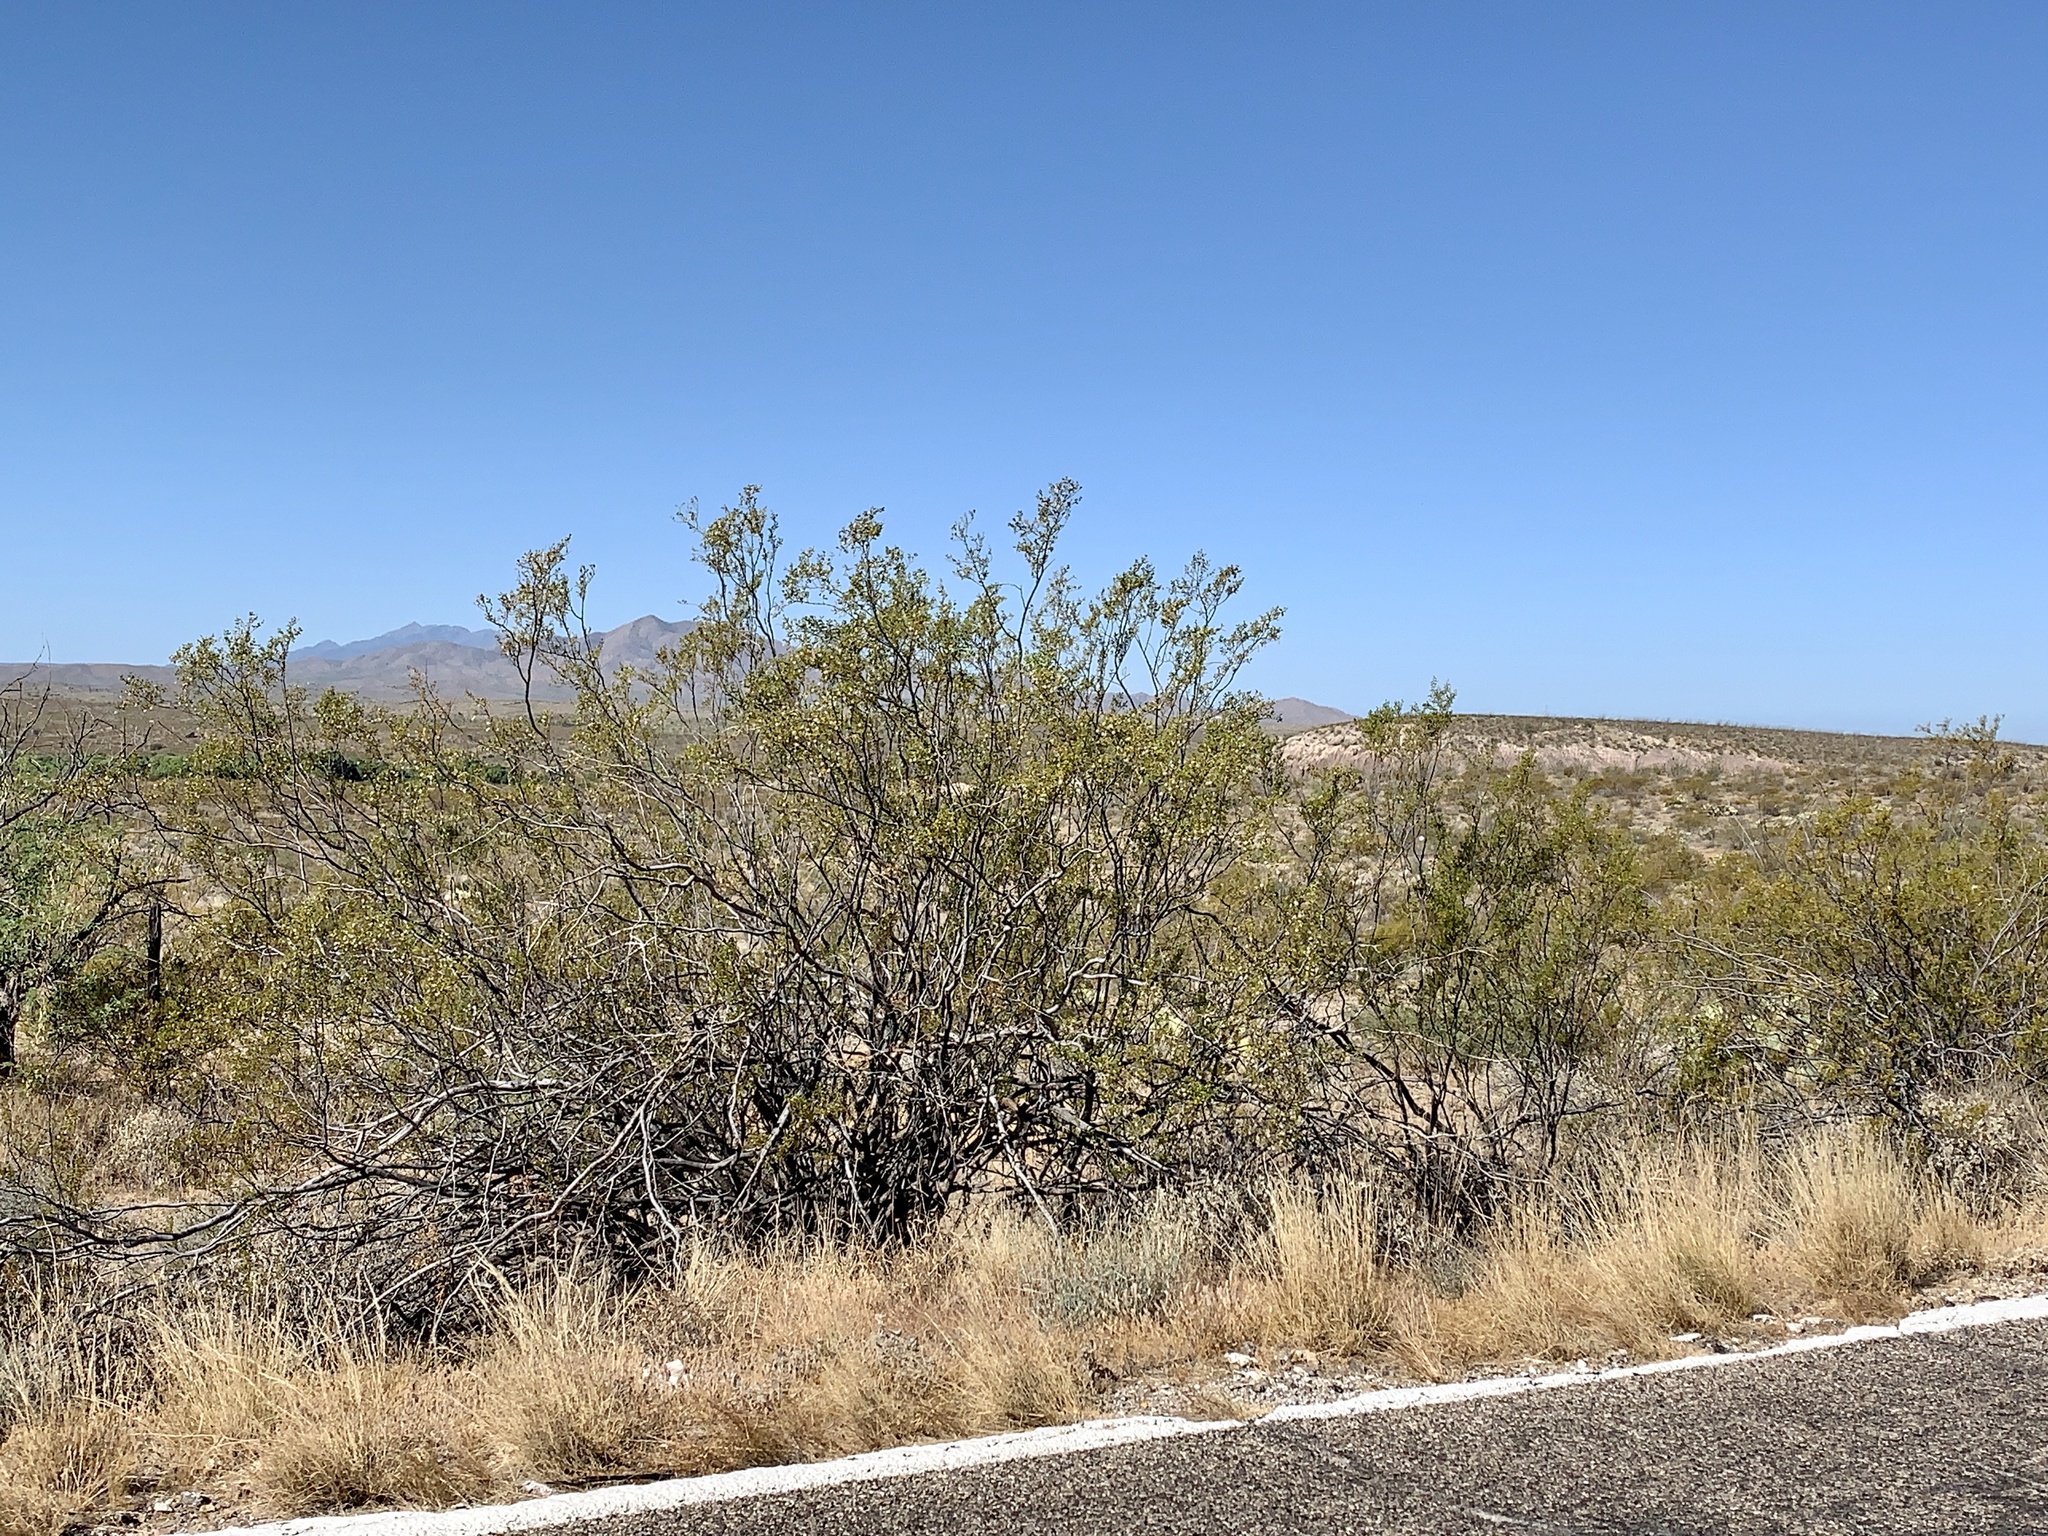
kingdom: Plantae
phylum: Tracheophyta
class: Magnoliopsida
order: Zygophyllales
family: Zygophyllaceae
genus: Larrea
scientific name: Larrea tridentata
